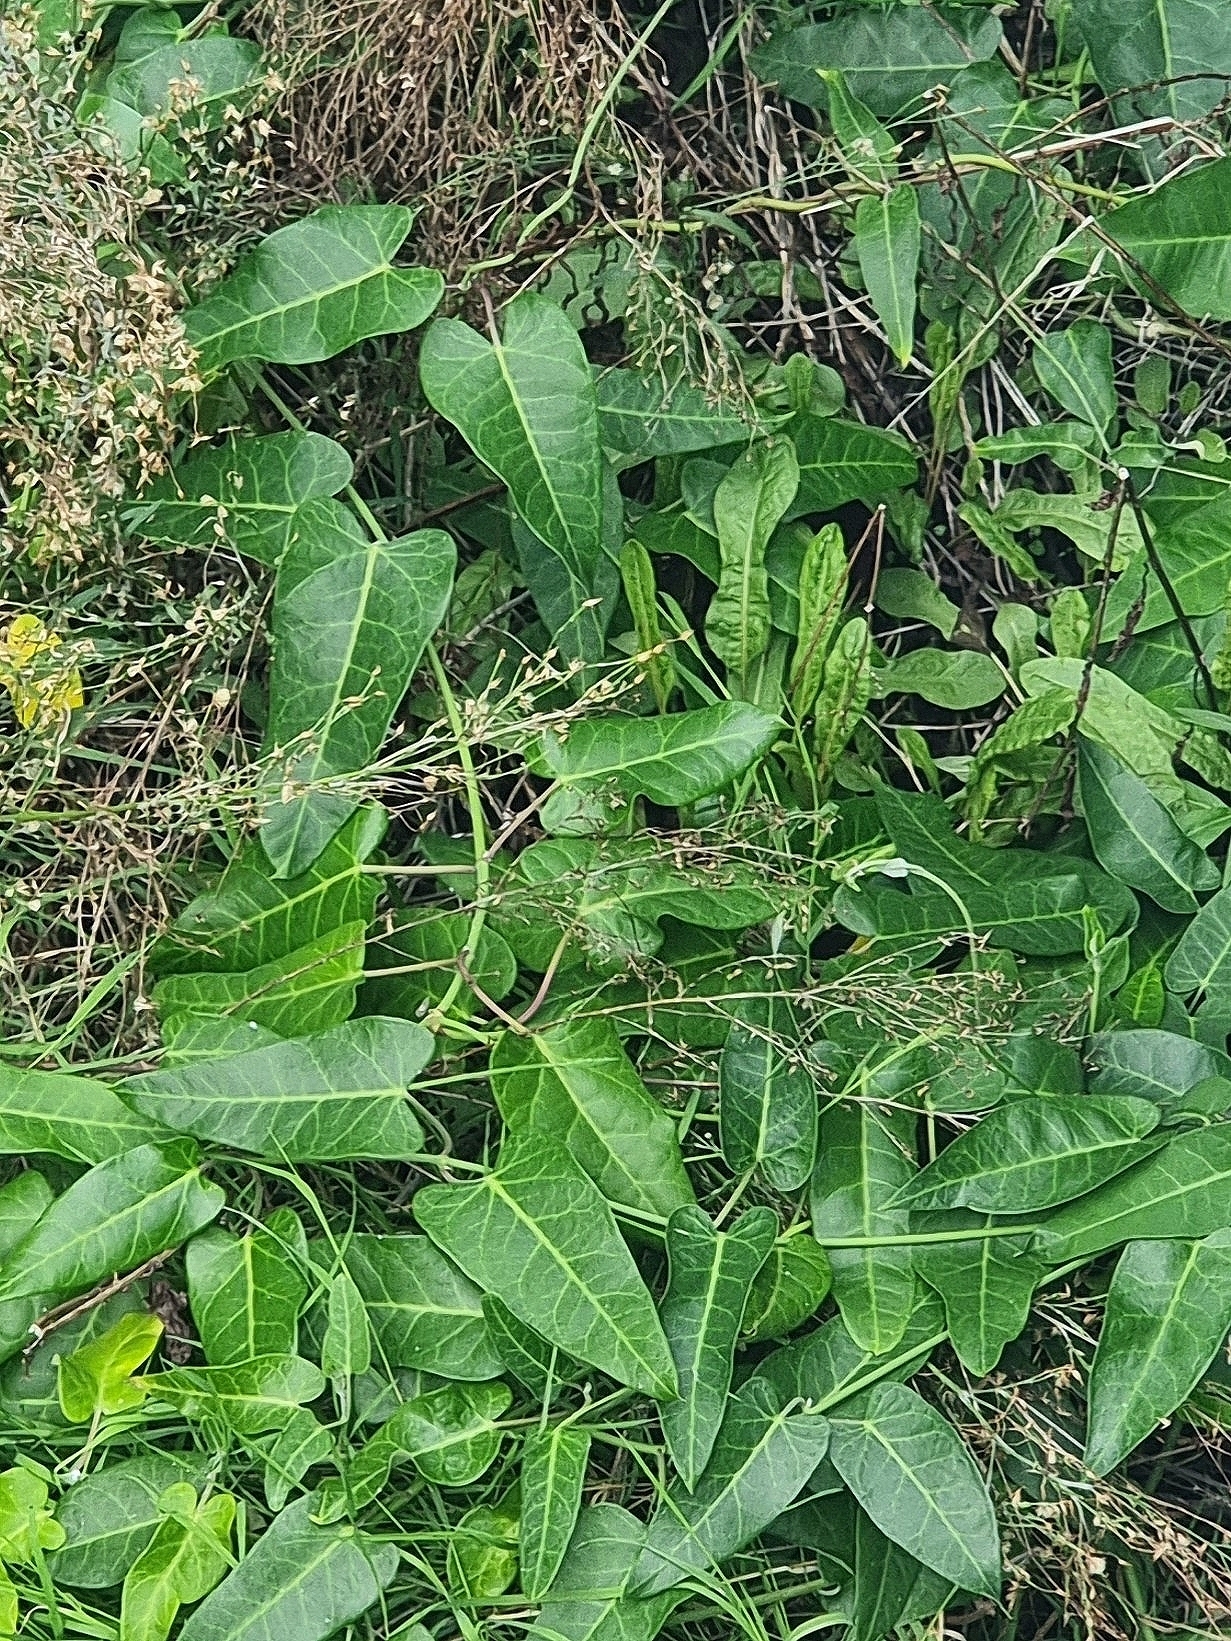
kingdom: Plantae
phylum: Tracheophyta
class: Magnoliopsida
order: Gentianales
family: Apocynaceae
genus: Araujia
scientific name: Araujia sericifera
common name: White bladderflower
